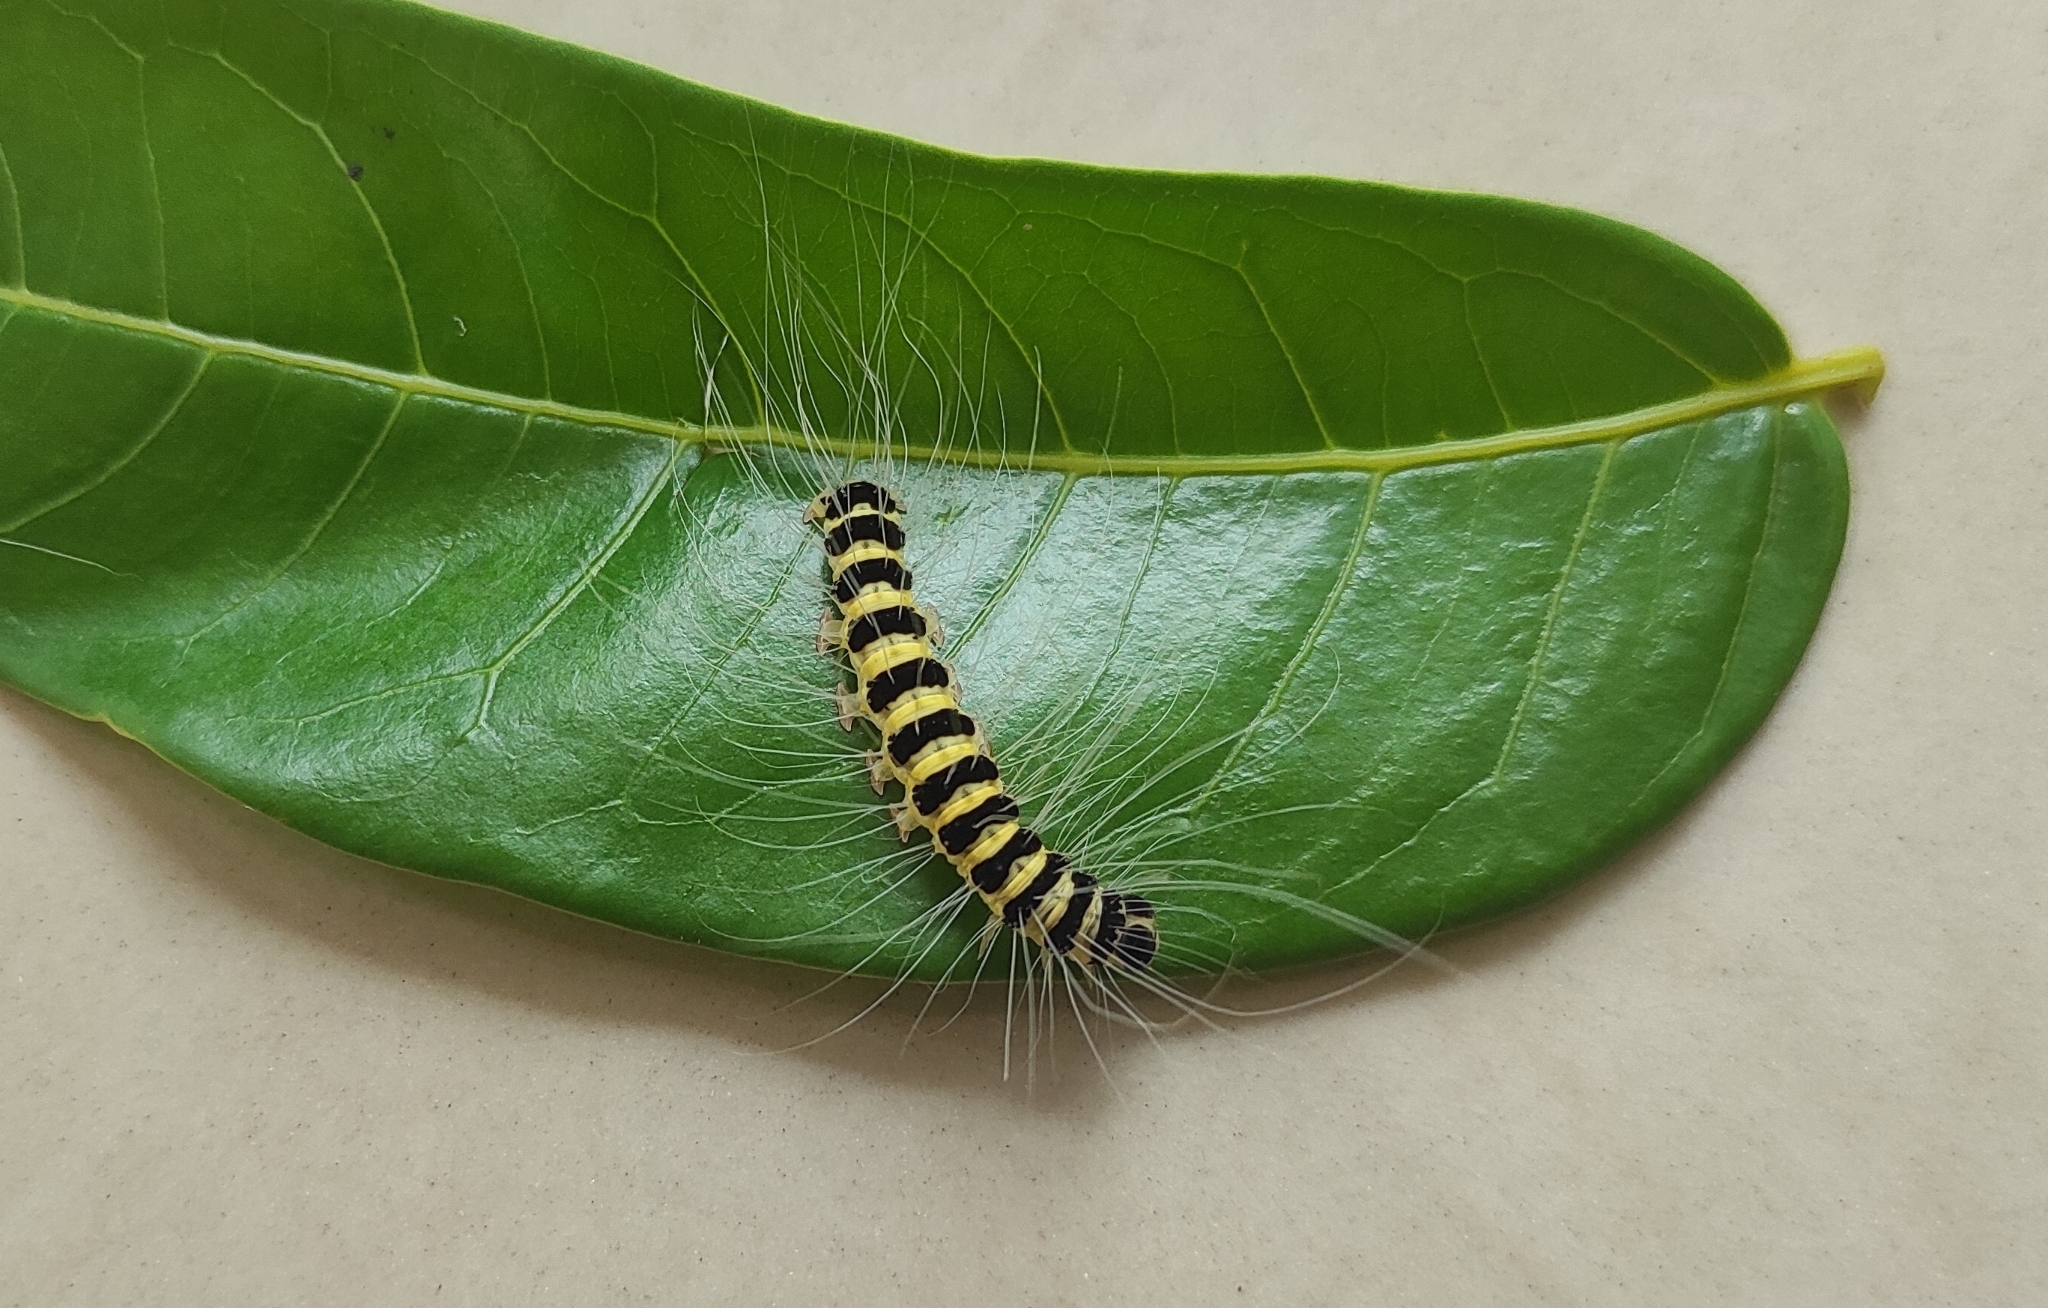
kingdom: Animalia
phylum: Arthropoda
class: Insecta
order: Lepidoptera
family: Nolidae
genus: Eligma
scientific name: Eligma narcissus
